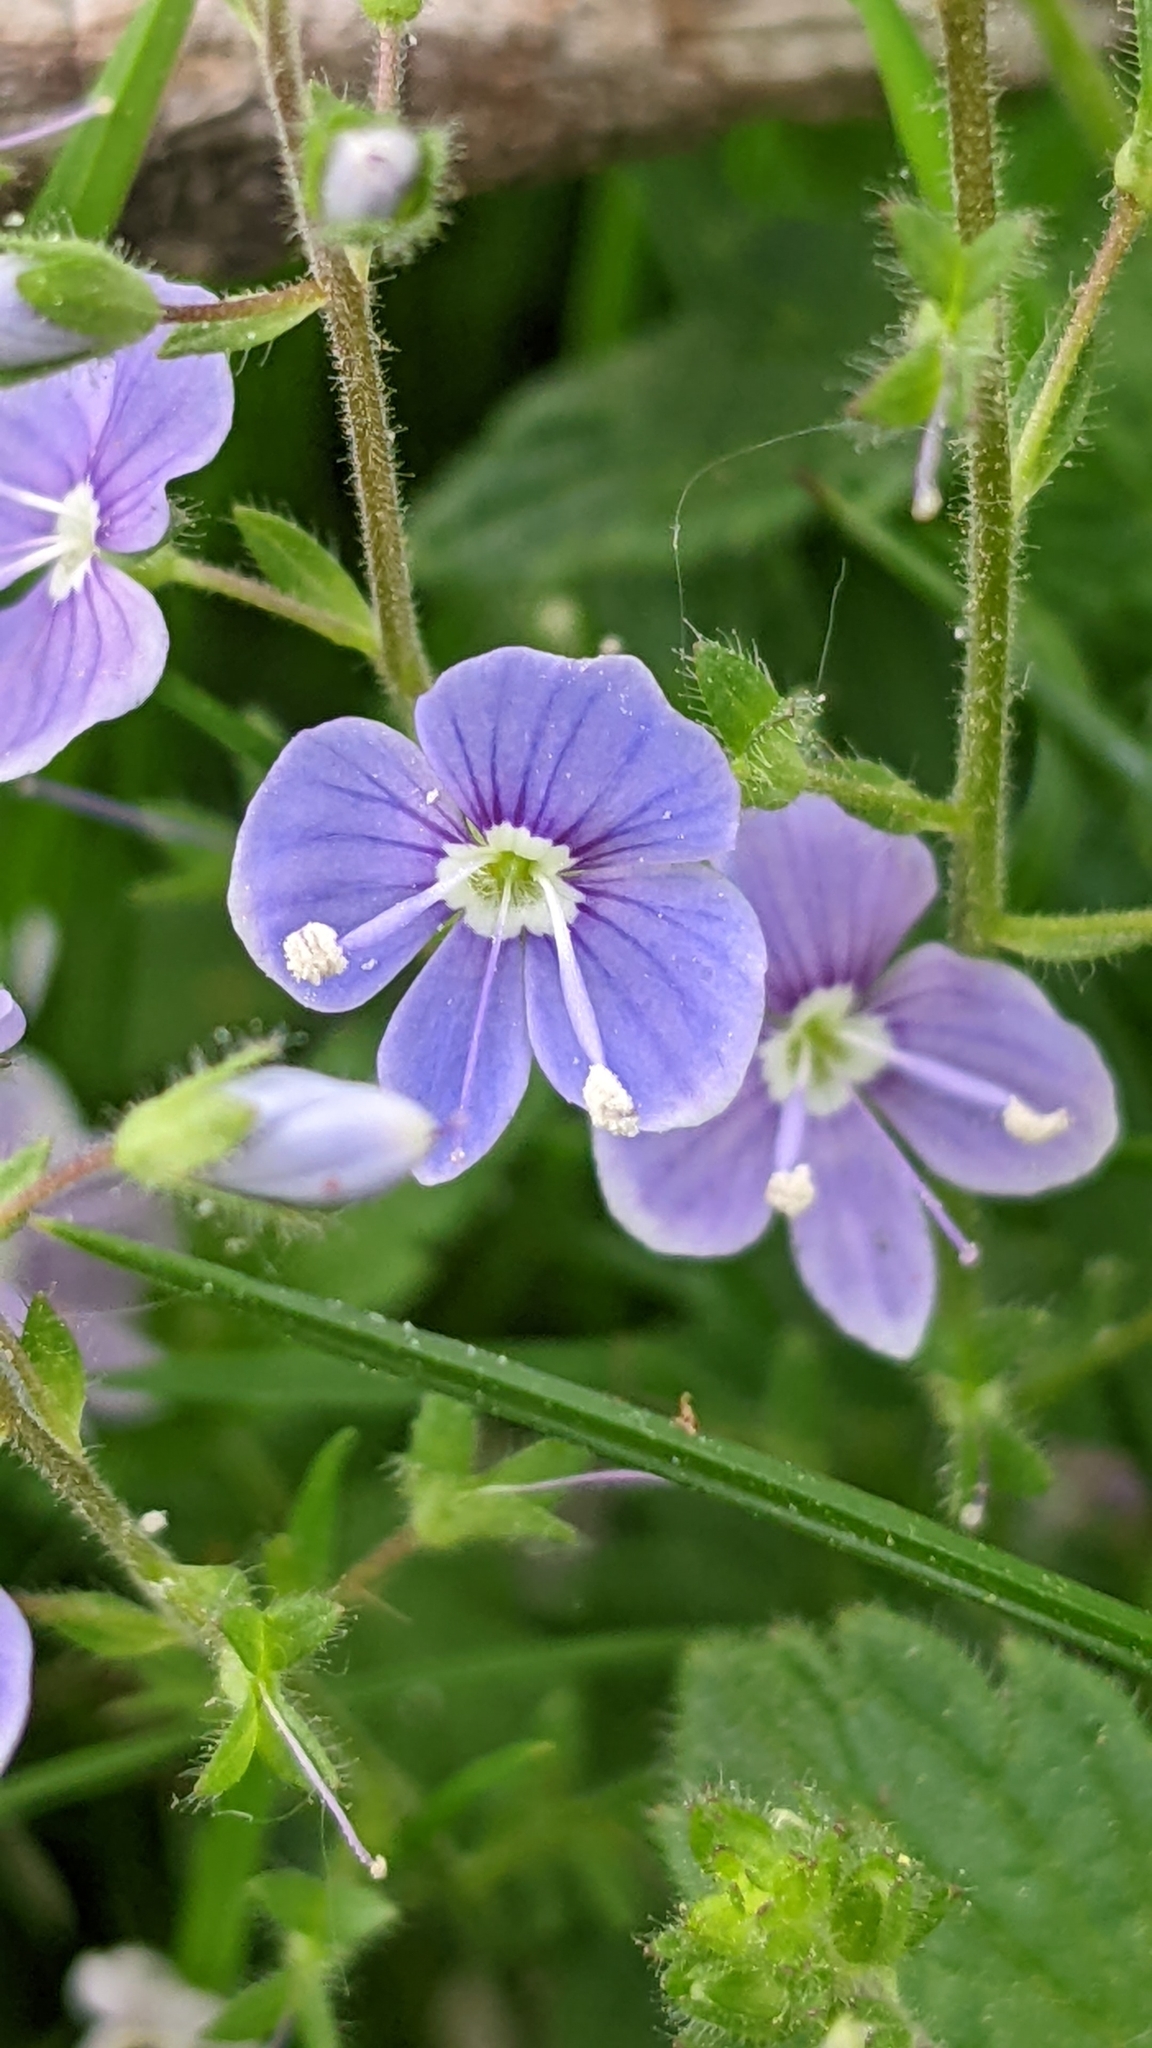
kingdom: Plantae
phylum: Tracheophyta
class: Magnoliopsida
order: Lamiales
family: Plantaginaceae
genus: Veronica
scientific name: Veronica chamaedrys
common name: Germander speedwell
